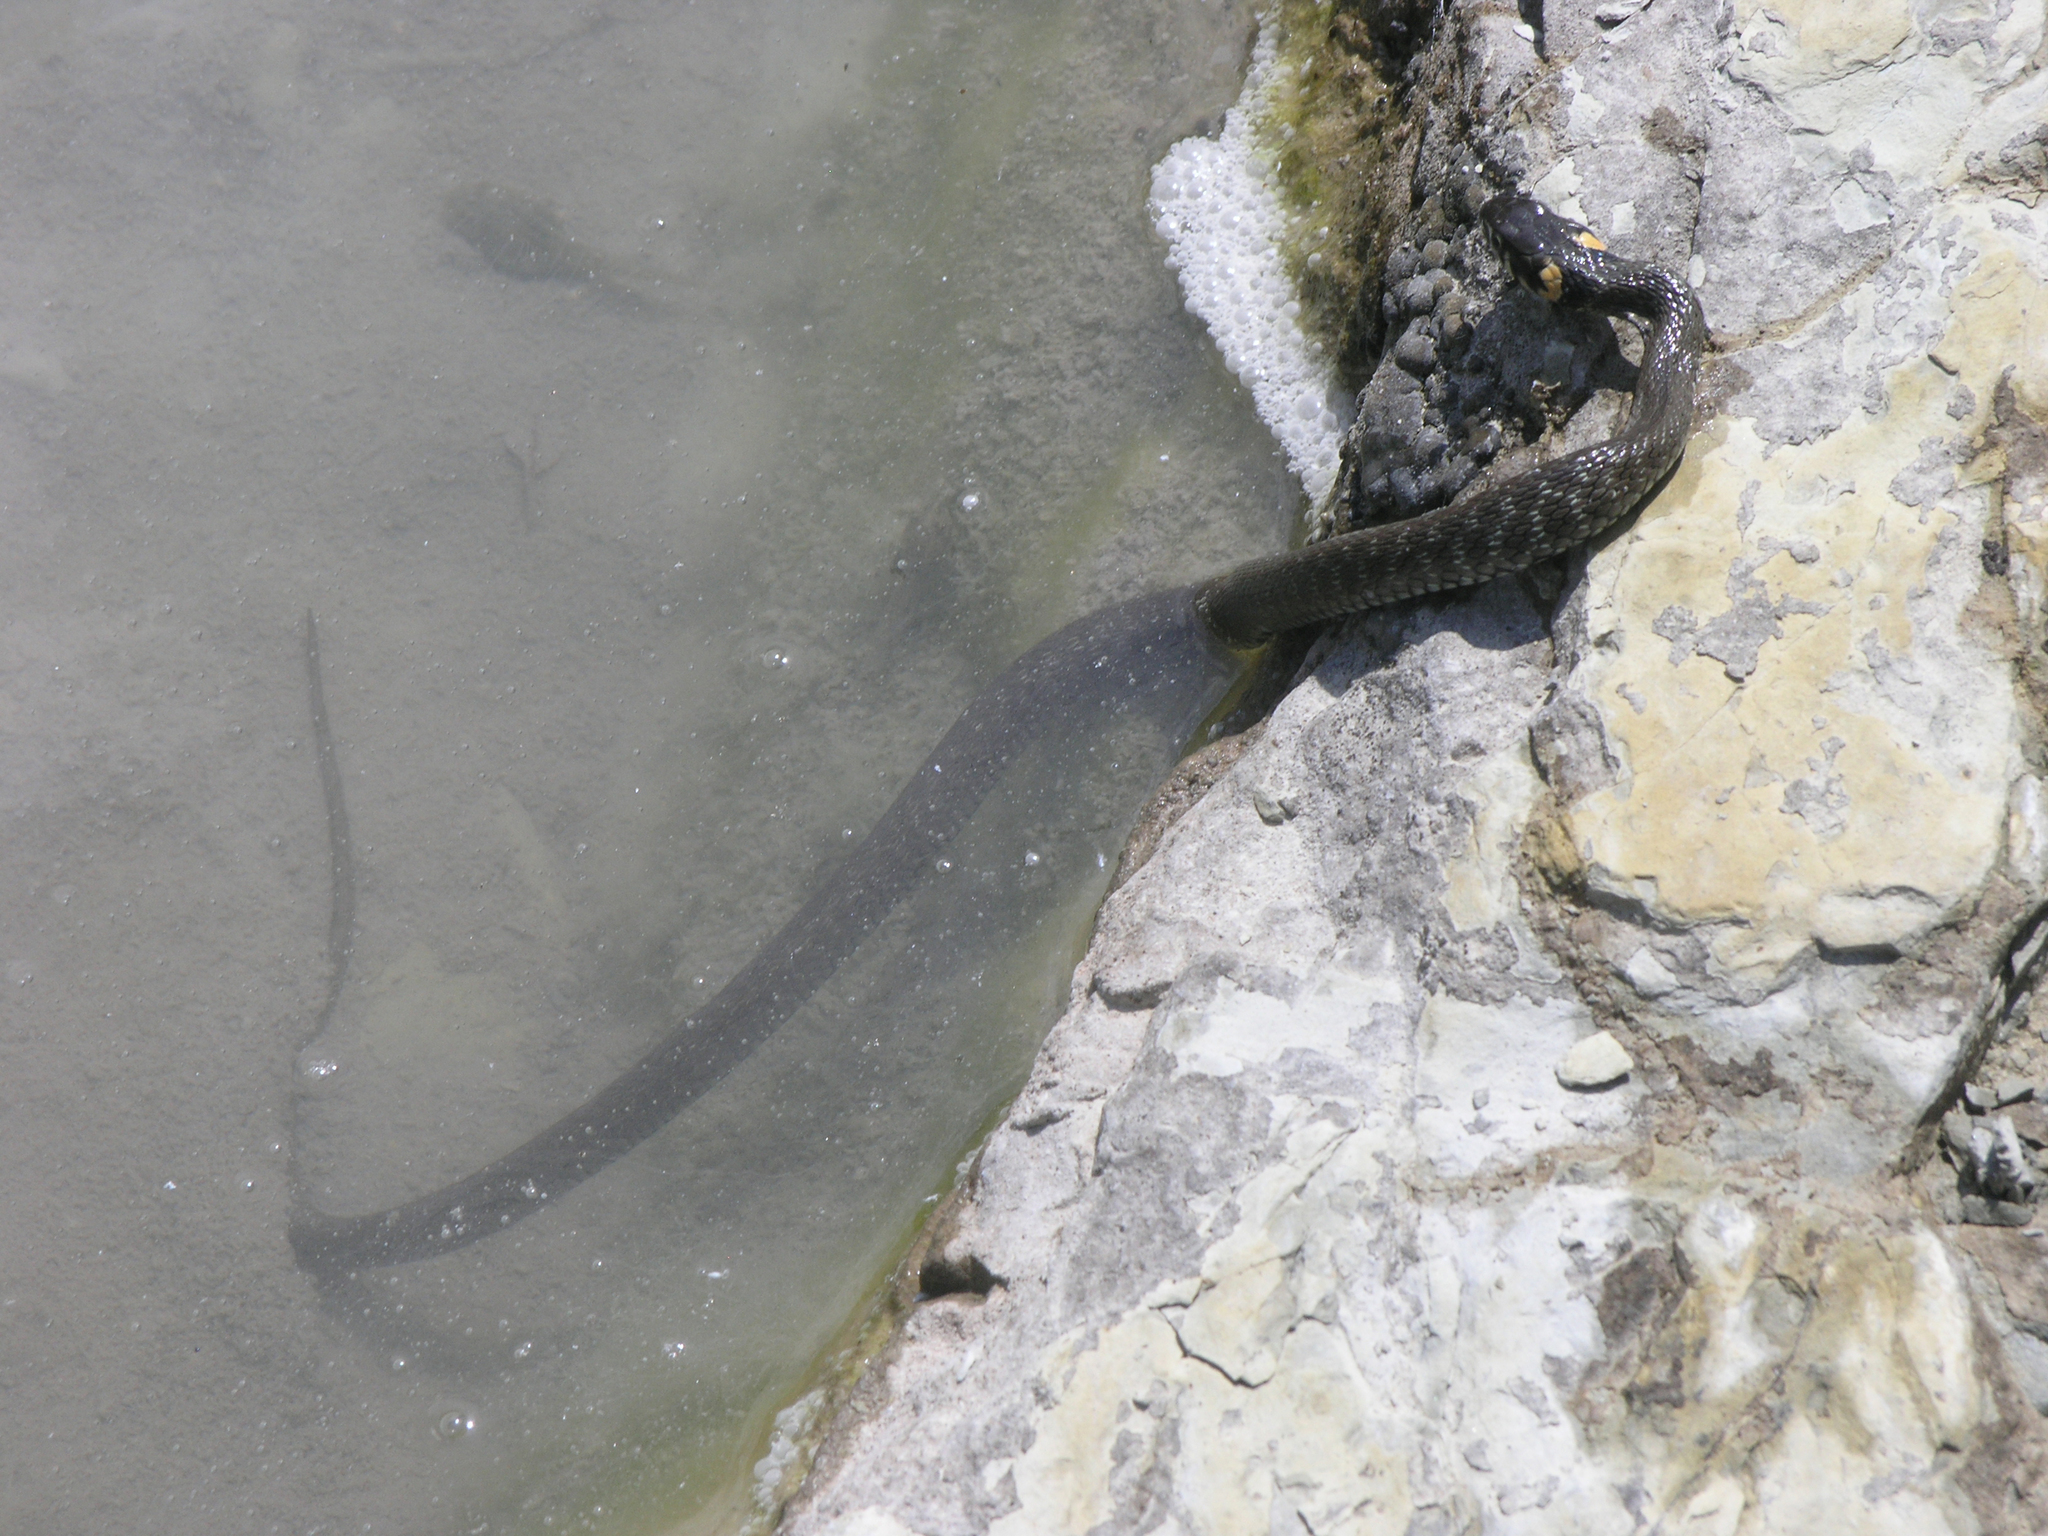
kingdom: Animalia
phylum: Chordata
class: Squamata
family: Colubridae
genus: Natrix
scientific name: Natrix natrix
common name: Grass snake
